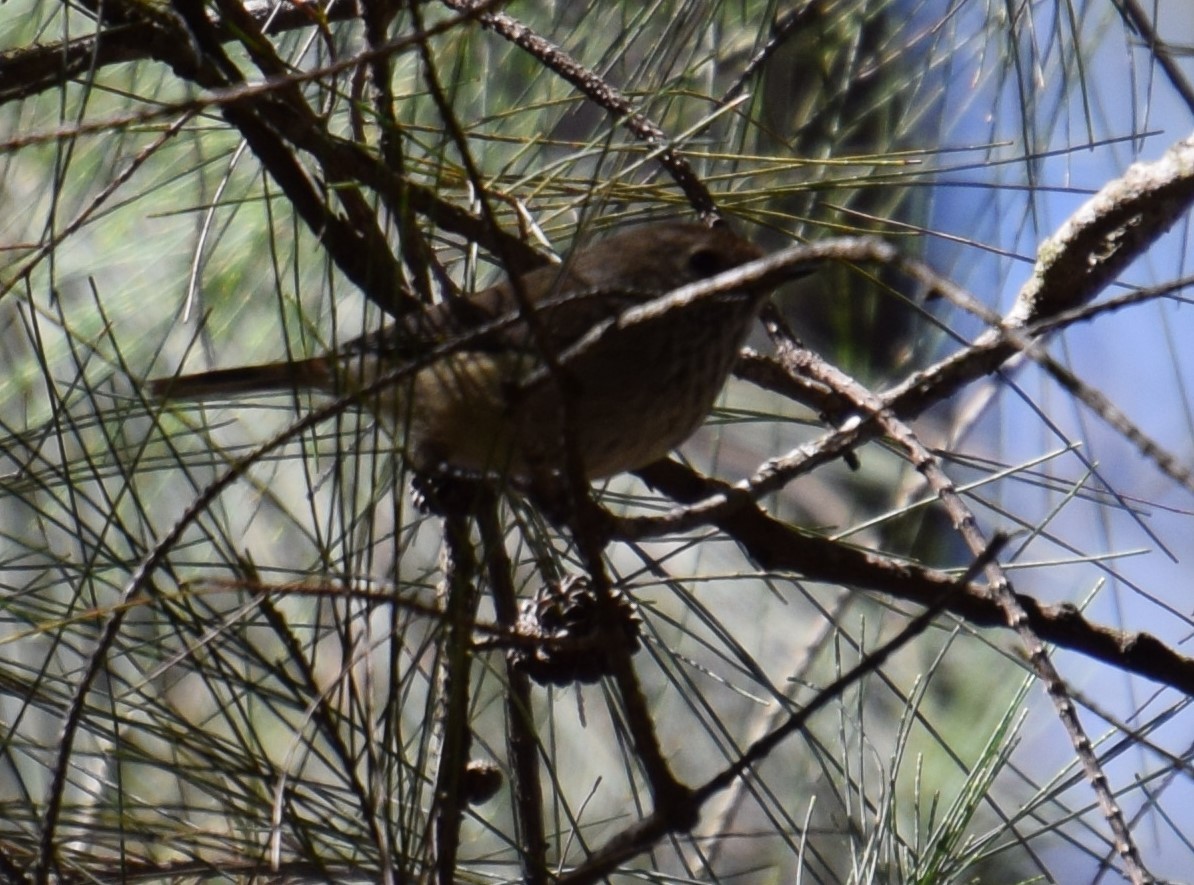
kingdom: Animalia
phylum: Chordata
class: Aves
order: Passeriformes
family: Acanthizidae
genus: Acanthiza
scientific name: Acanthiza pusilla
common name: Brown thornbill
